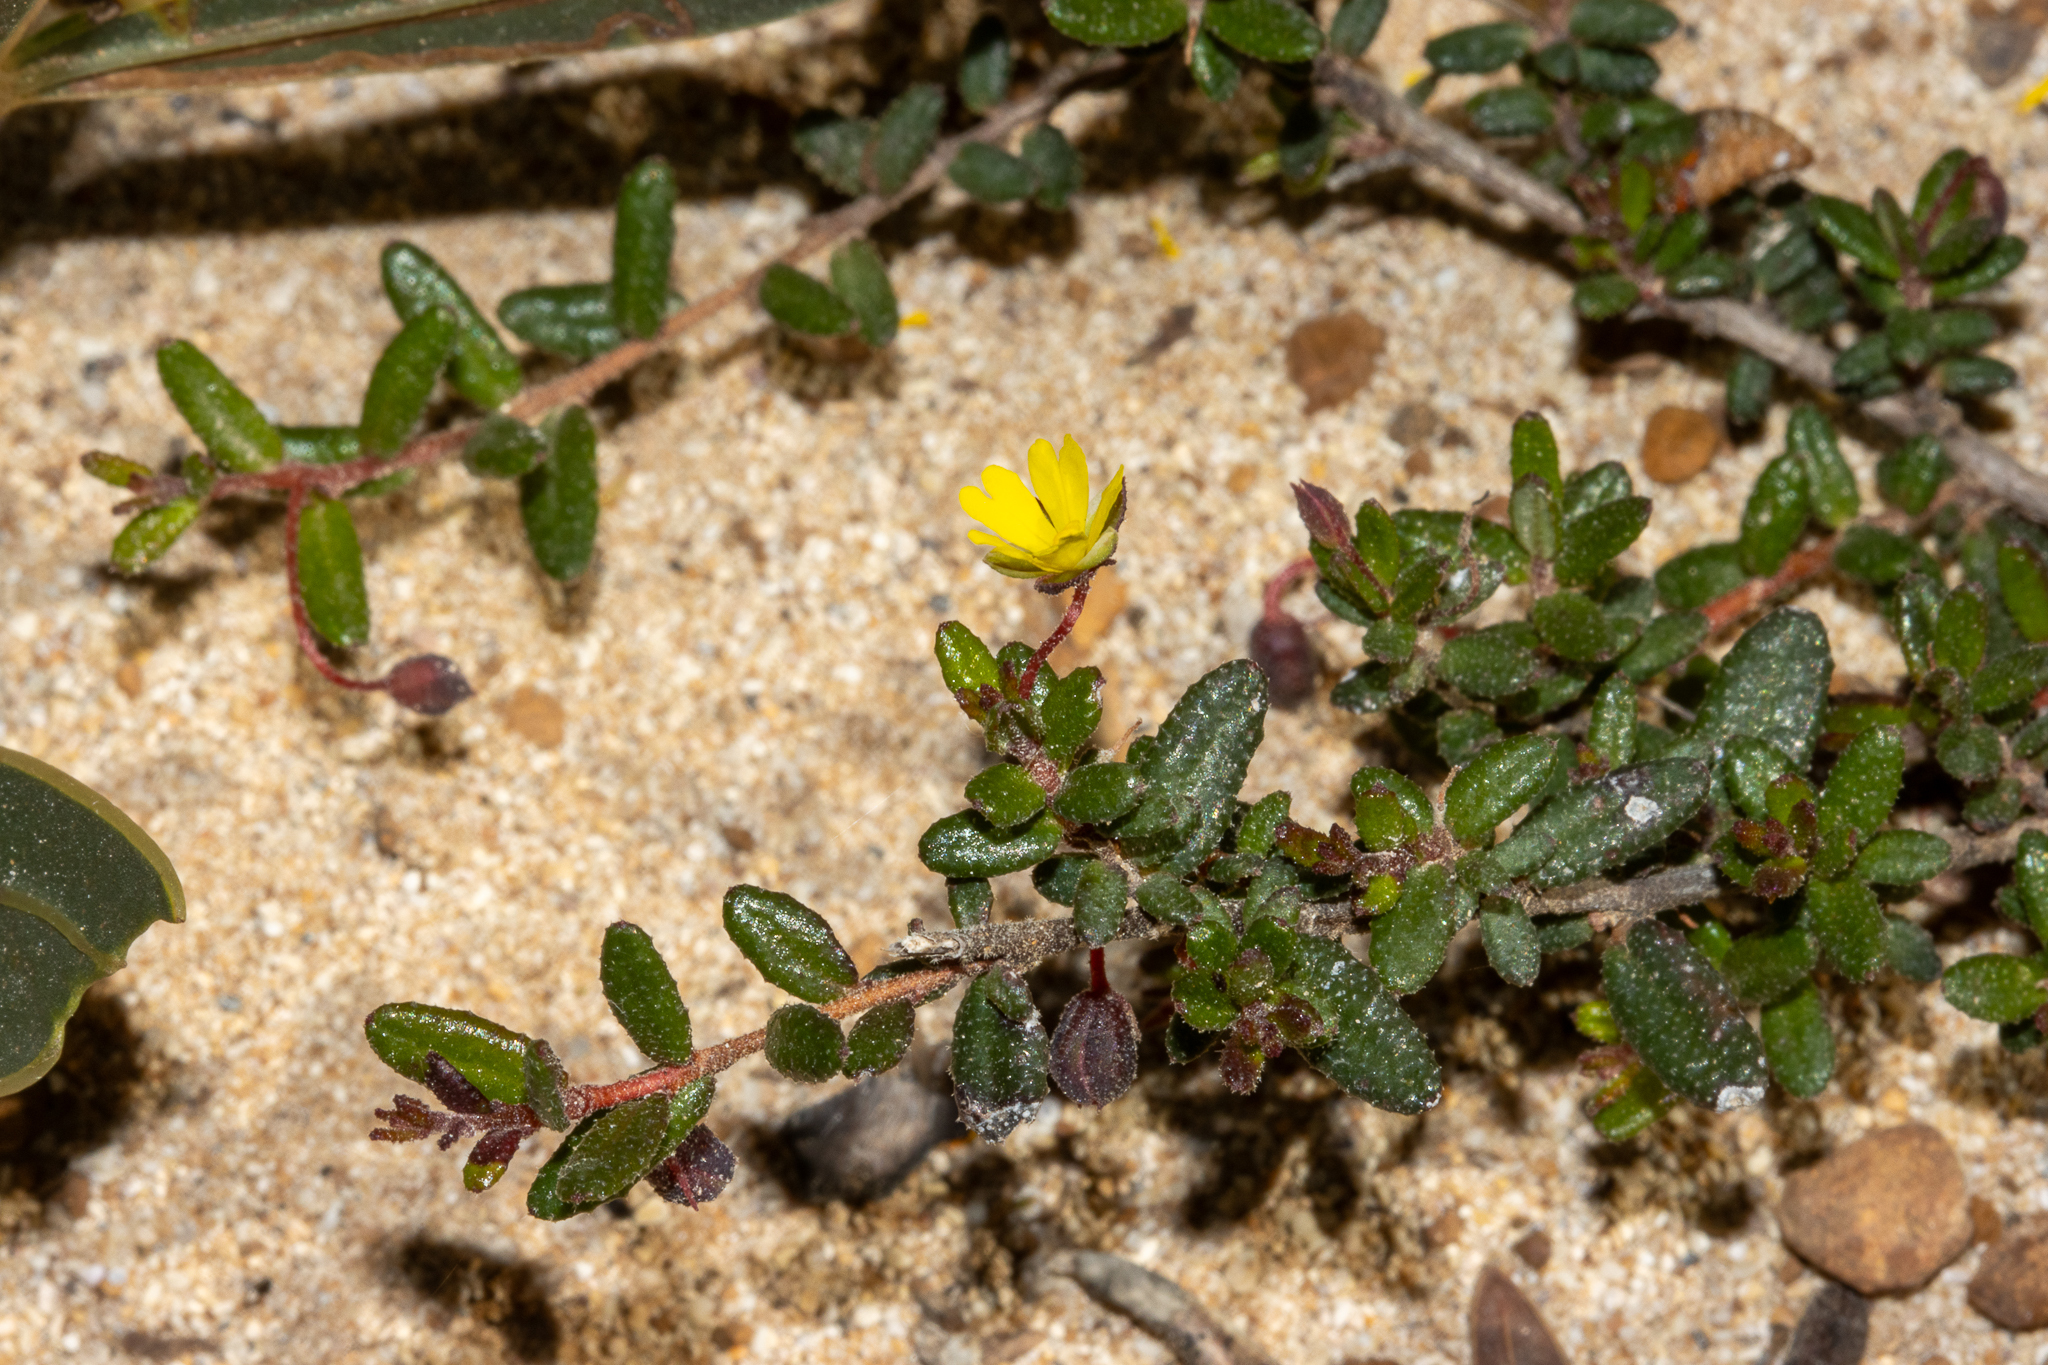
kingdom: Plantae
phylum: Tracheophyta
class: Magnoliopsida
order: Dilleniales
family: Dilleniaceae
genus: Hibbertia
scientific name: Hibbertia
